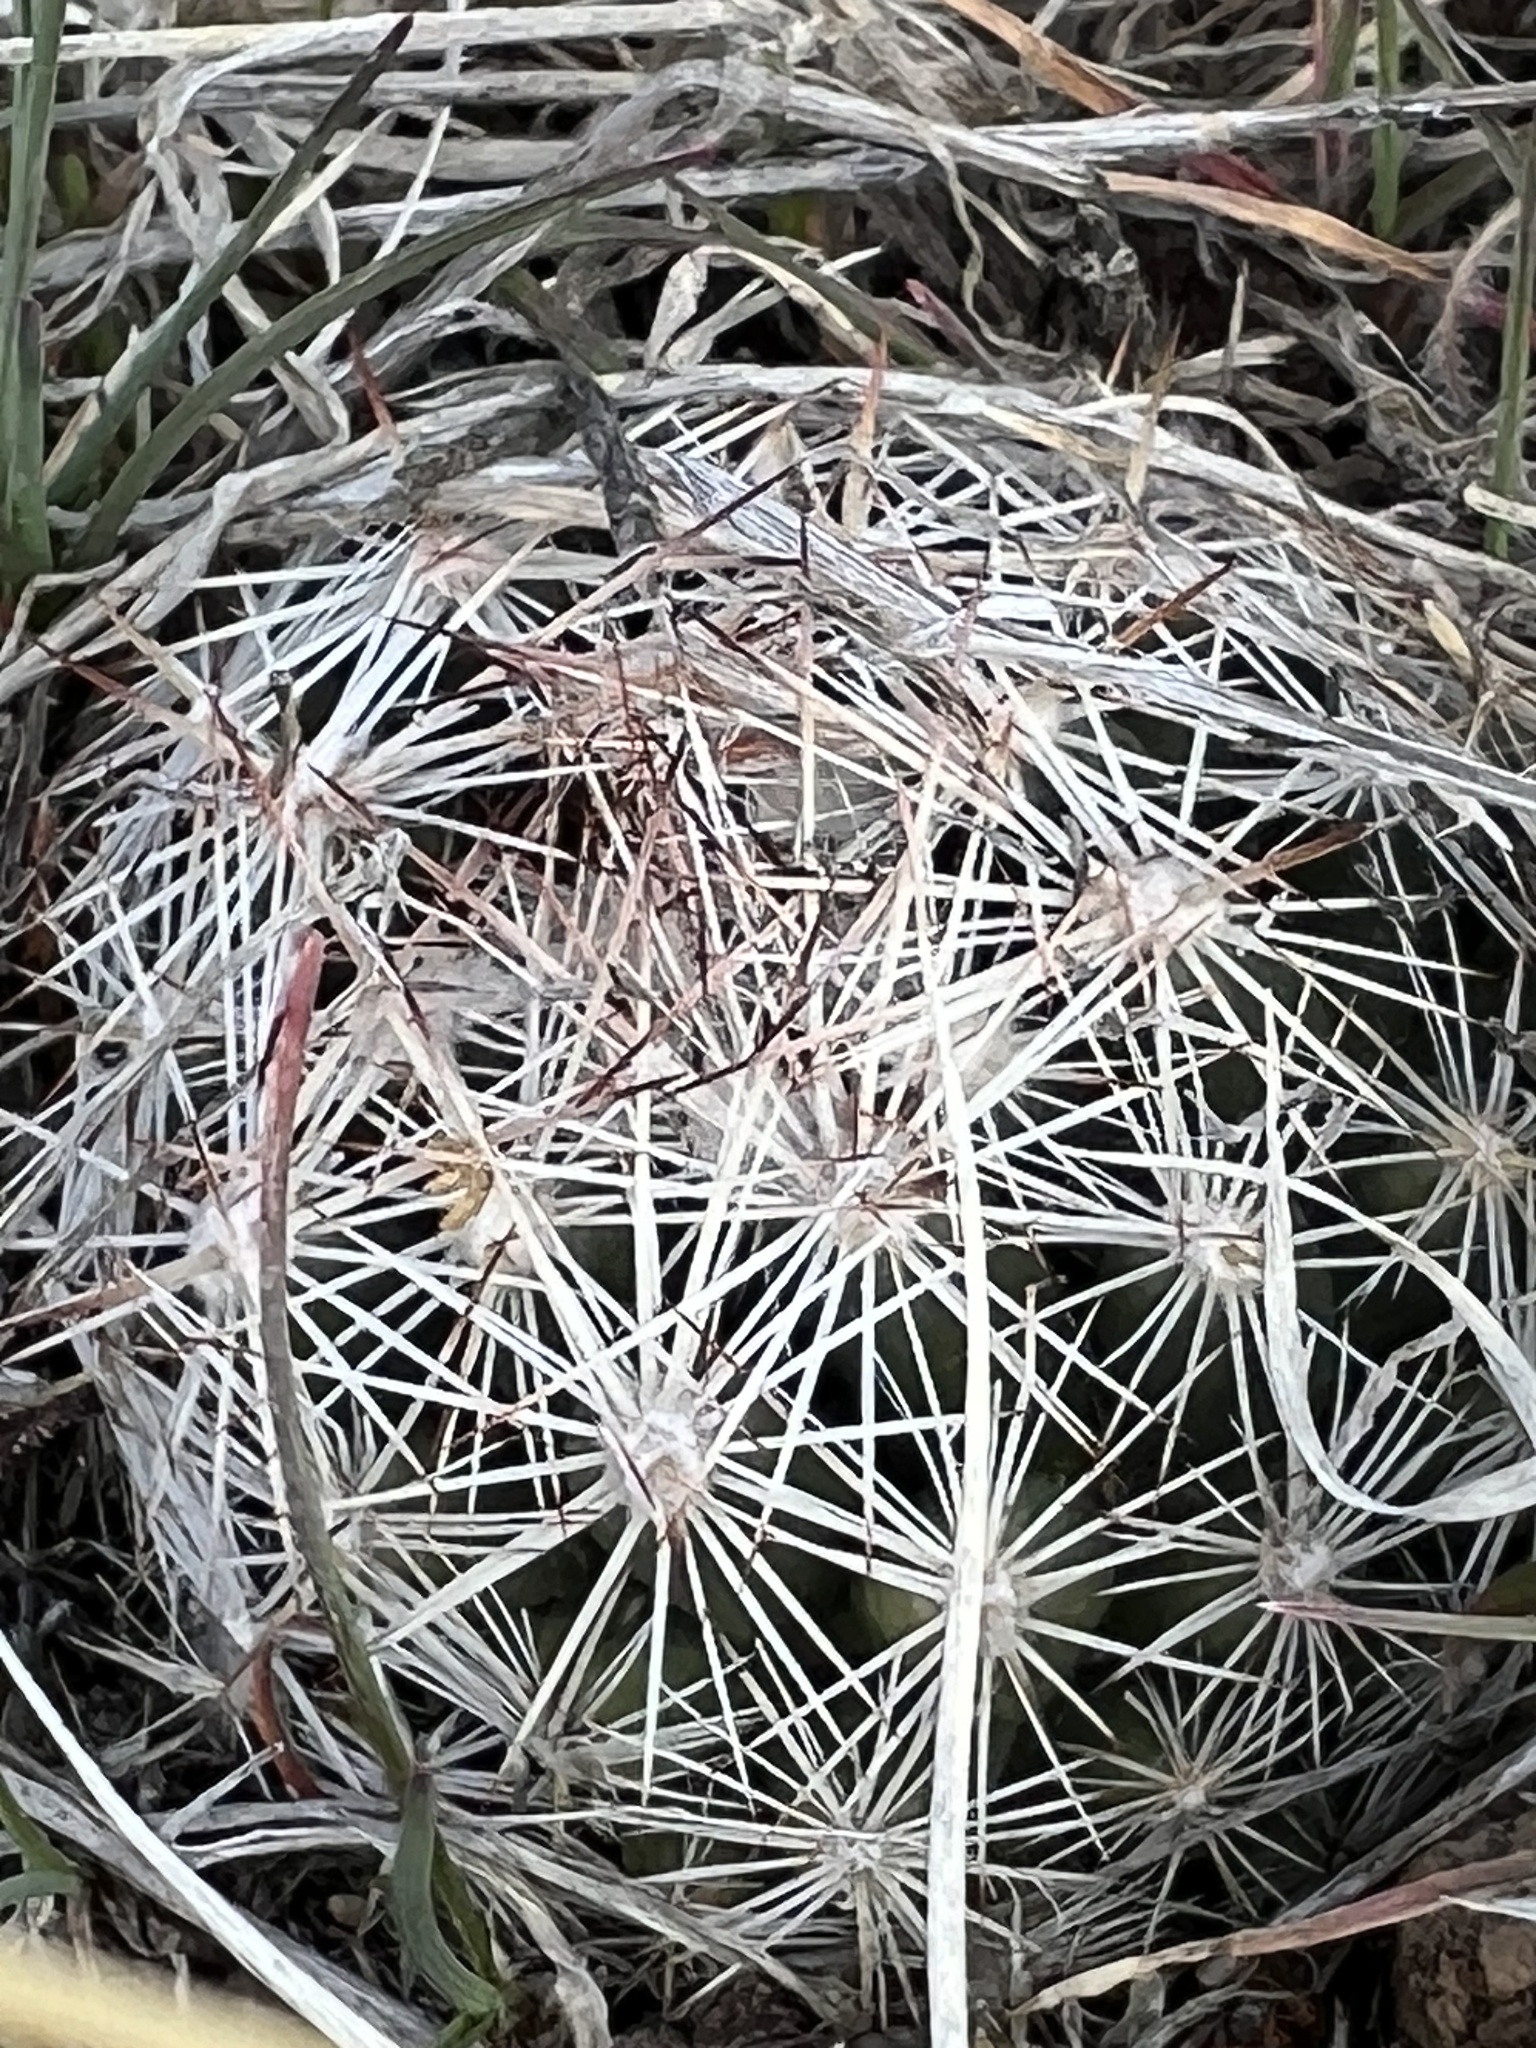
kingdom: Plantae
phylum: Tracheophyta
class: Magnoliopsida
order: Caryophyllales
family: Cactaceae
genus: Pelecyphora
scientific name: Pelecyphora vivipara
